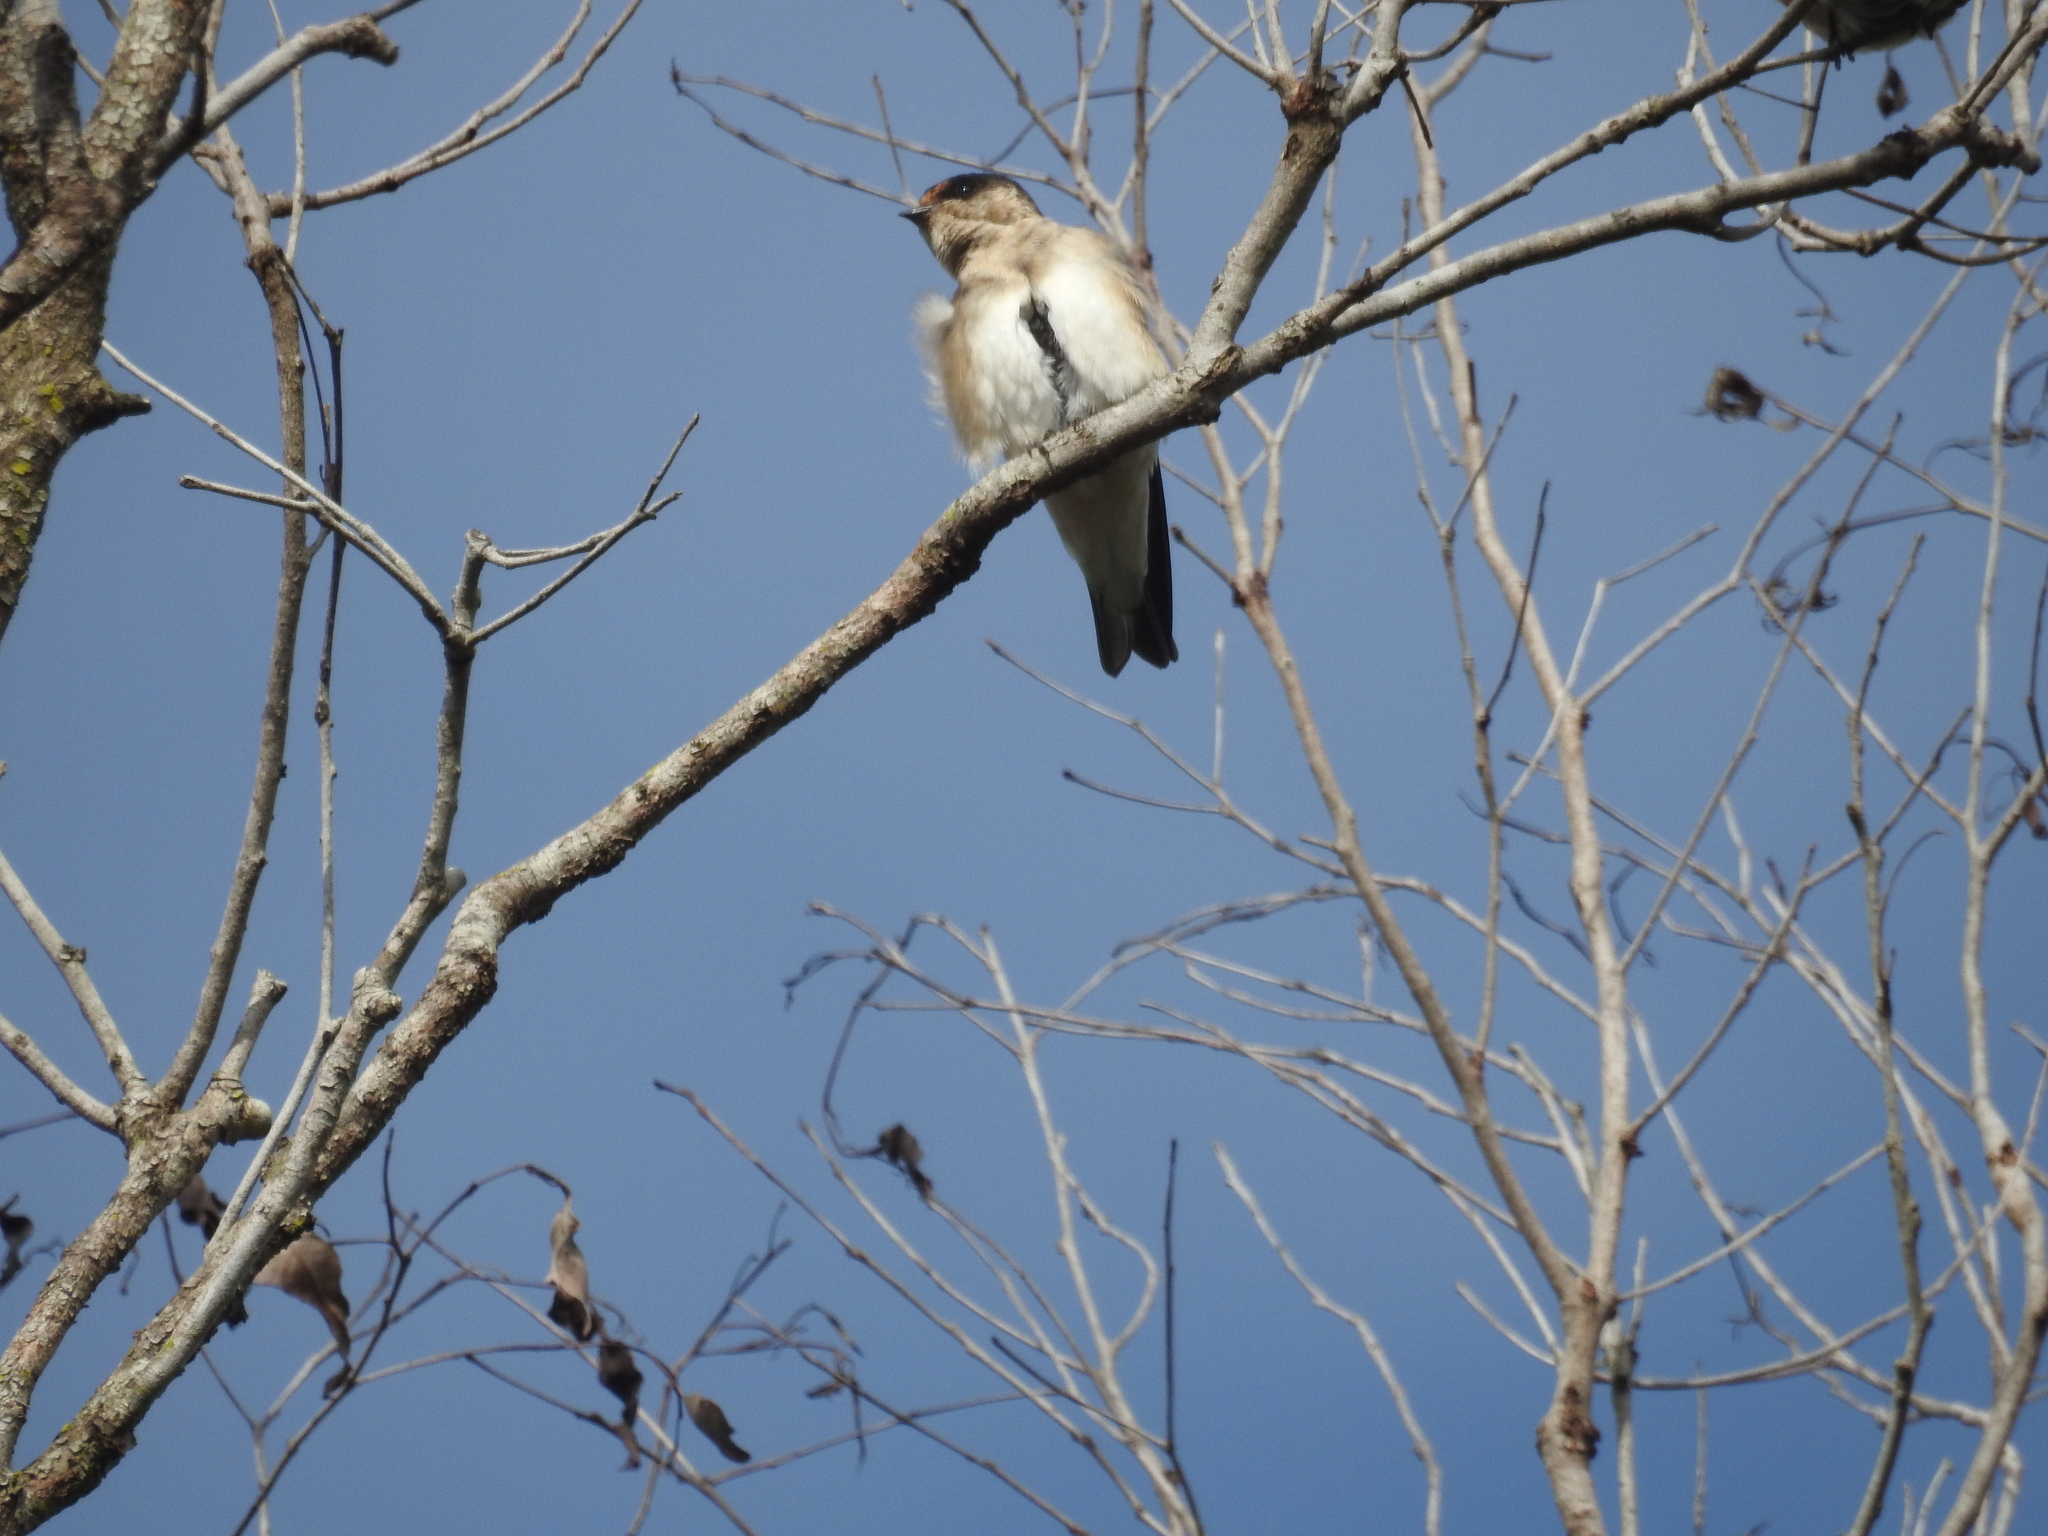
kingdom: Animalia
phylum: Chordata
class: Aves
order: Passeriformes
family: Hirundinidae
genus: Petrochelidon
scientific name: Petrochelidon nigricans
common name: Tree martin
